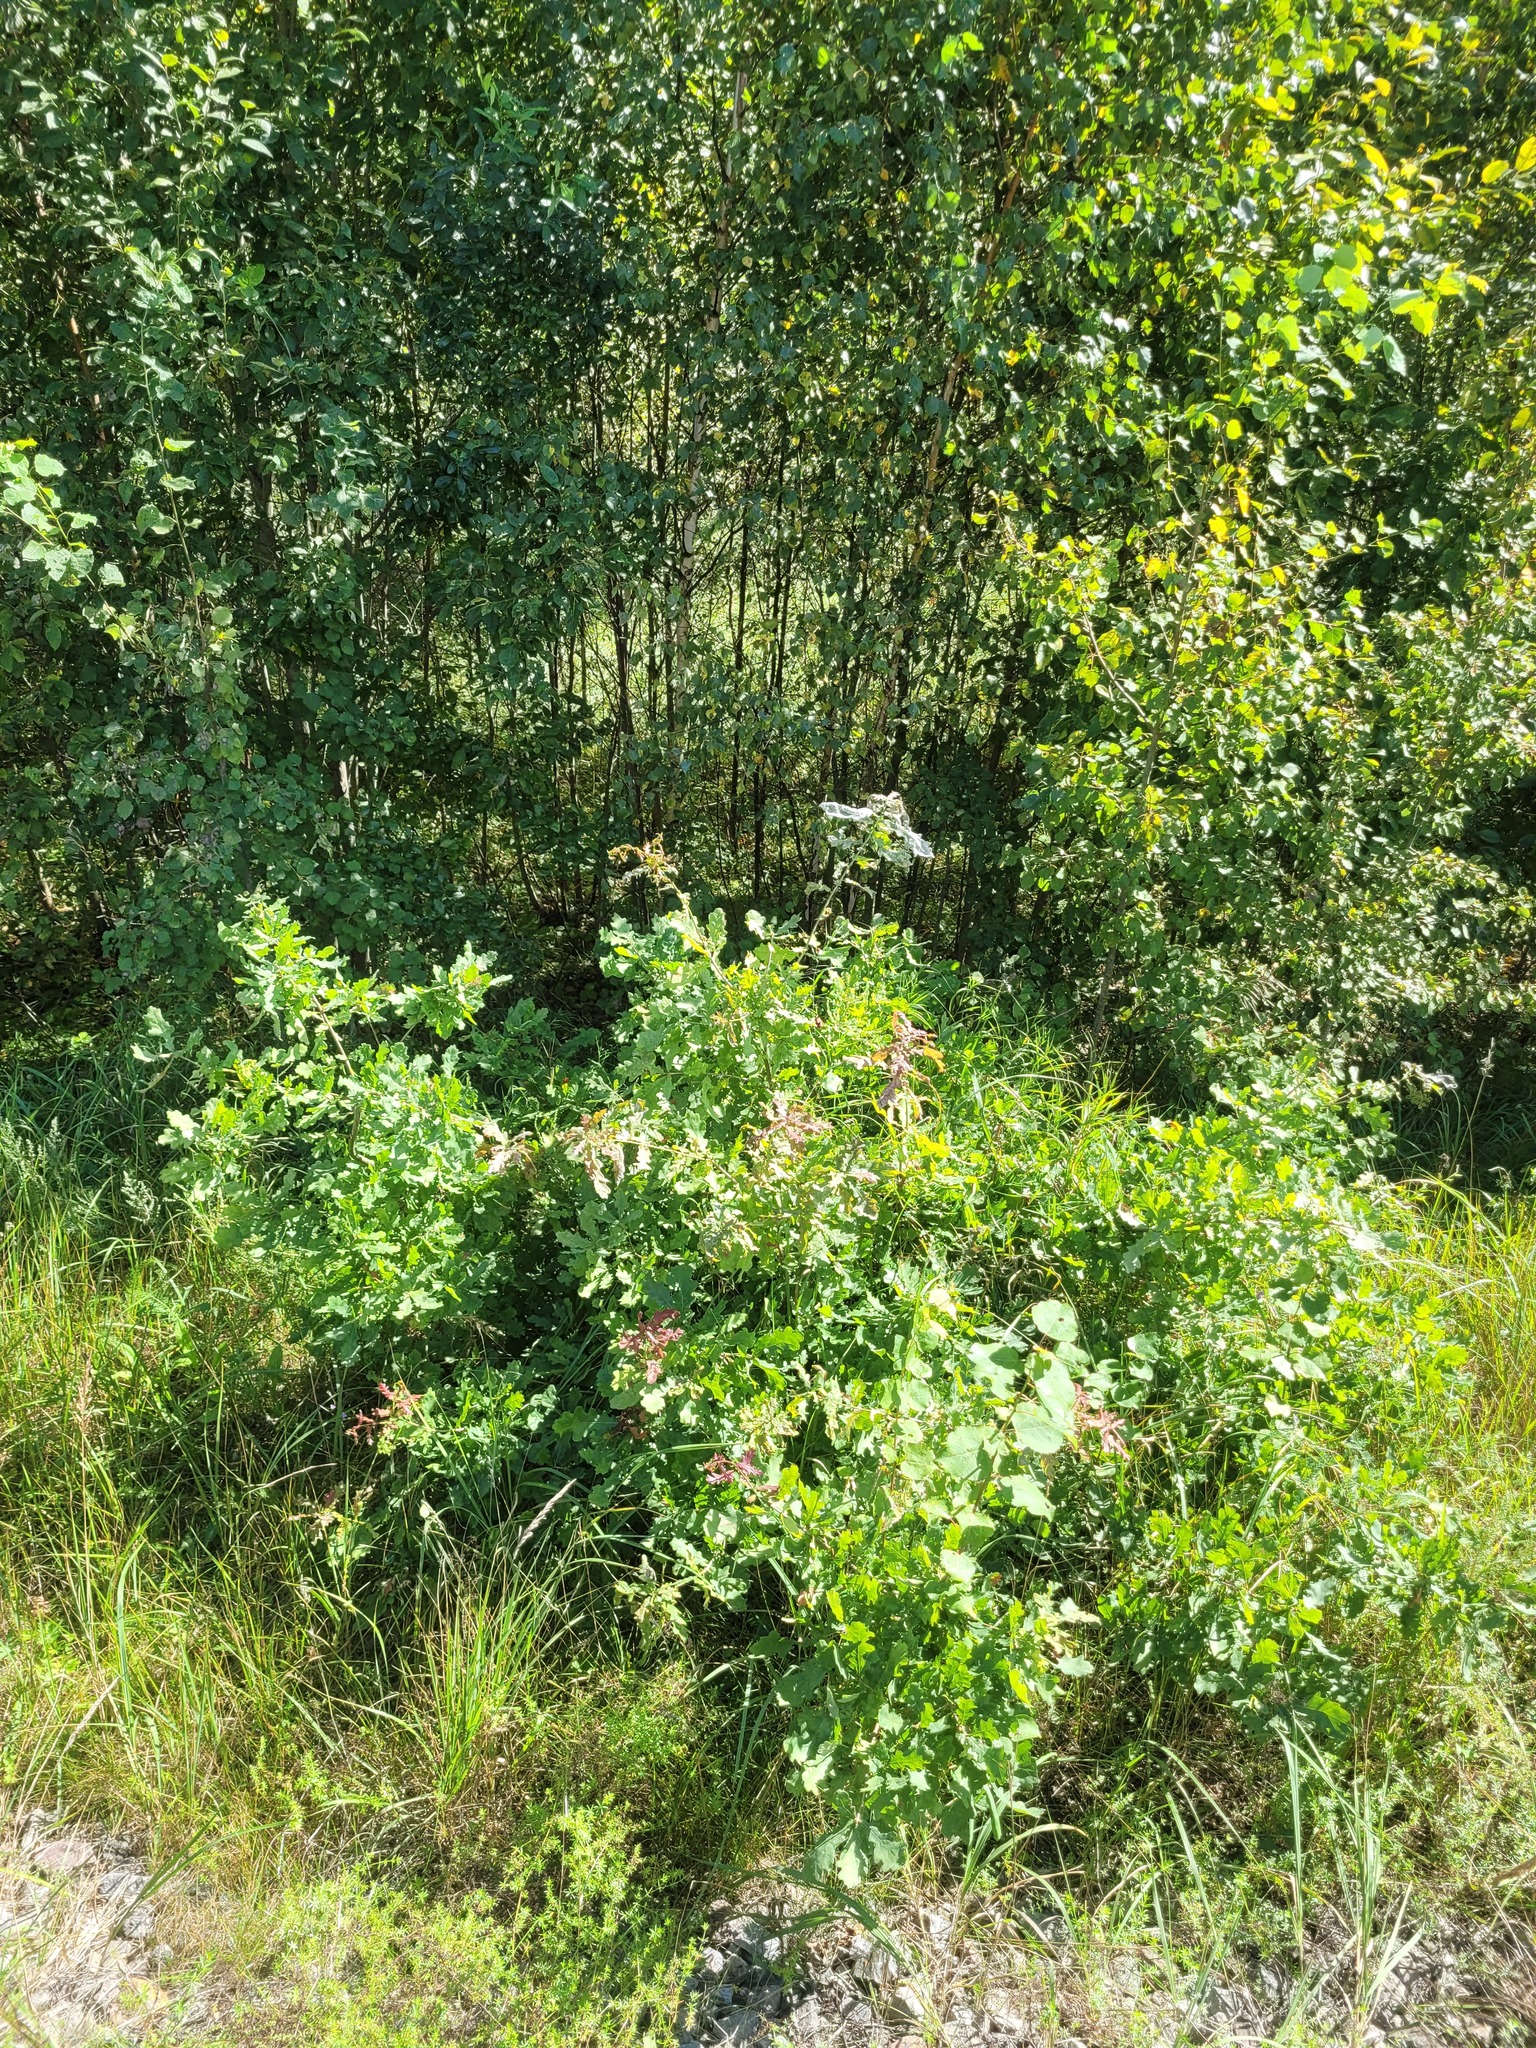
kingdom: Plantae
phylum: Tracheophyta
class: Magnoliopsida
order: Fagales
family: Fagaceae
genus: Quercus
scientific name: Quercus robur
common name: Pedunculate oak
